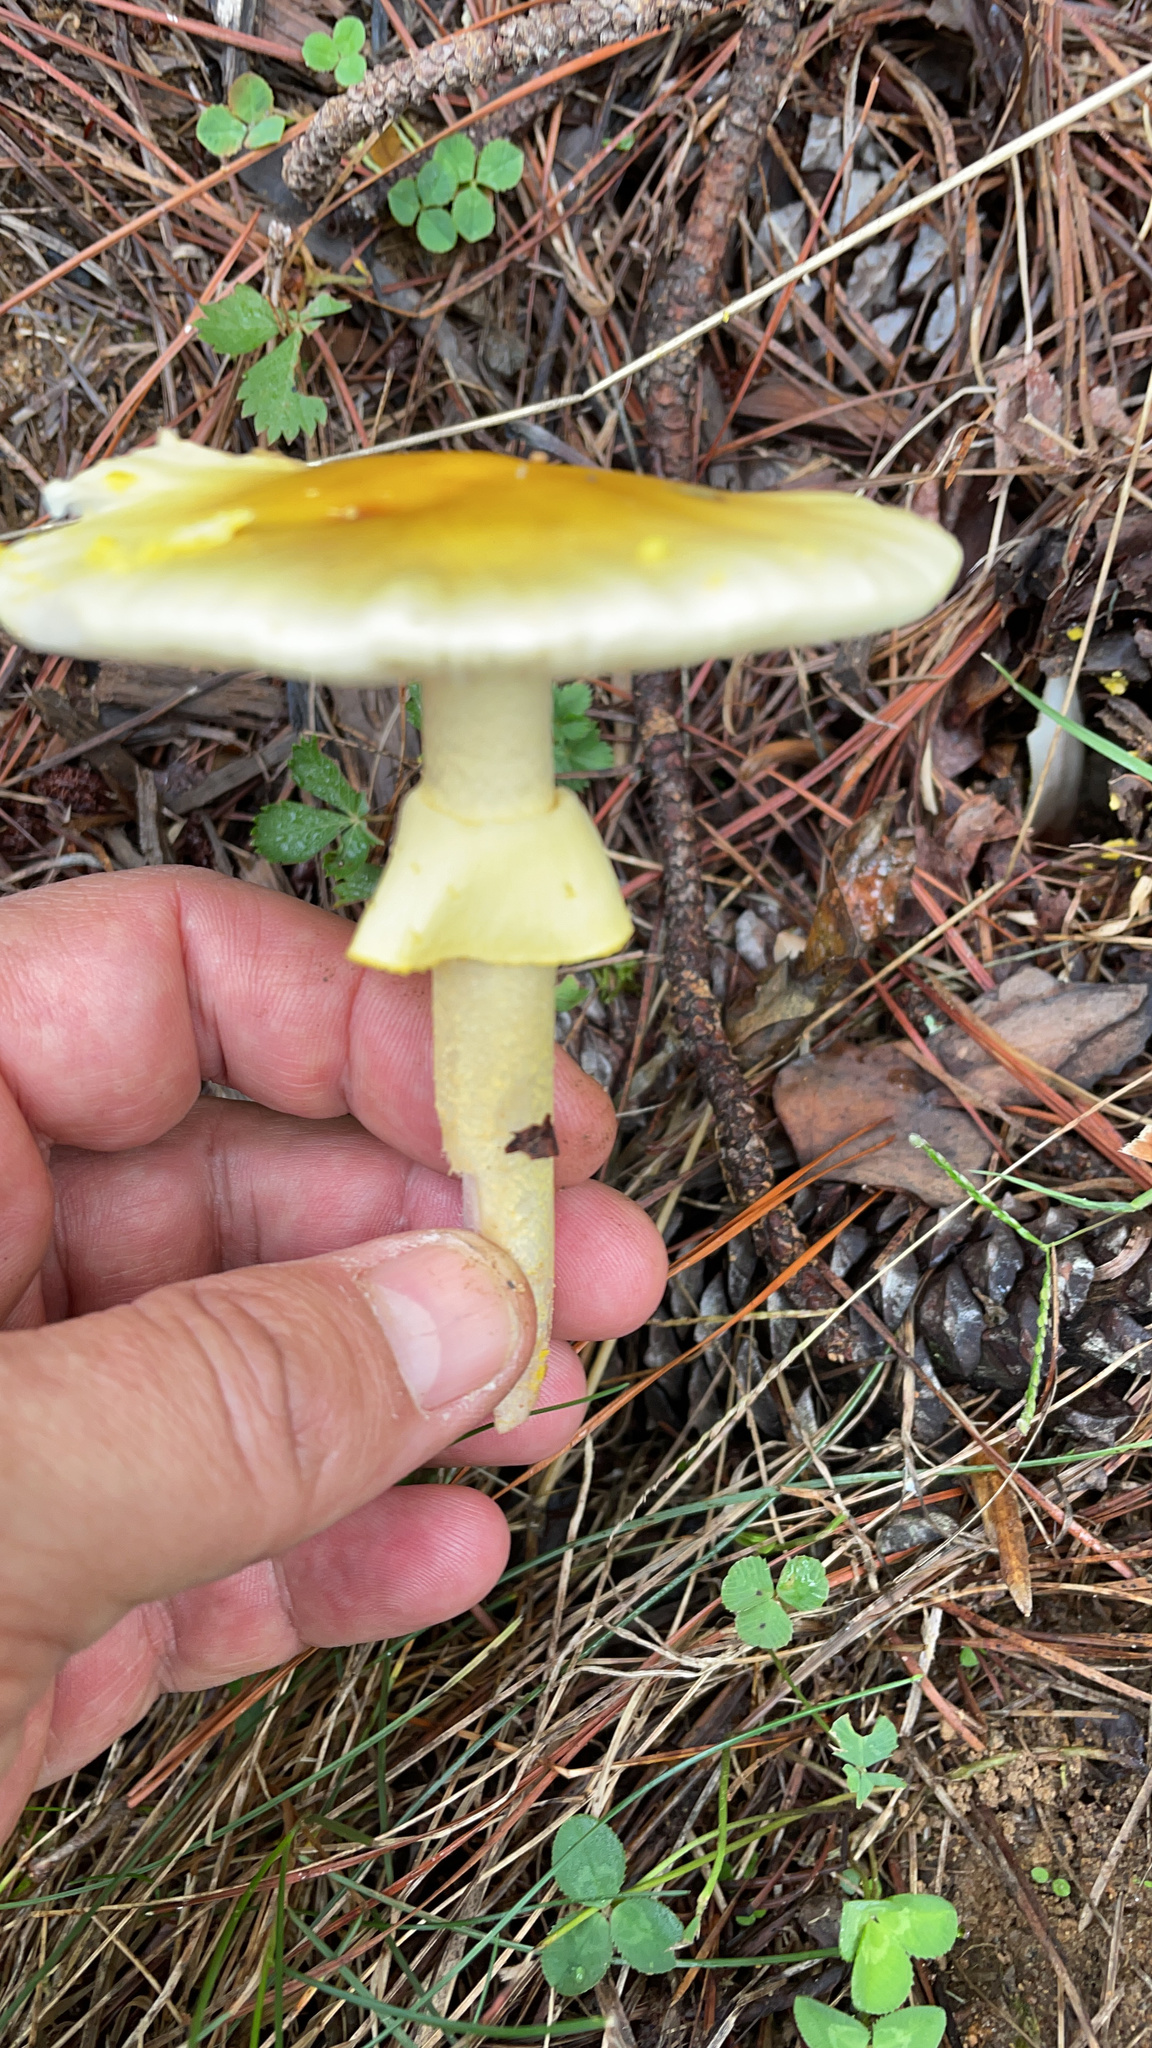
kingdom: Fungi
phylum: Basidiomycota
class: Agaricomycetes
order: Agaricales
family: Amanitaceae
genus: Amanita
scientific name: Amanita flavorubens
